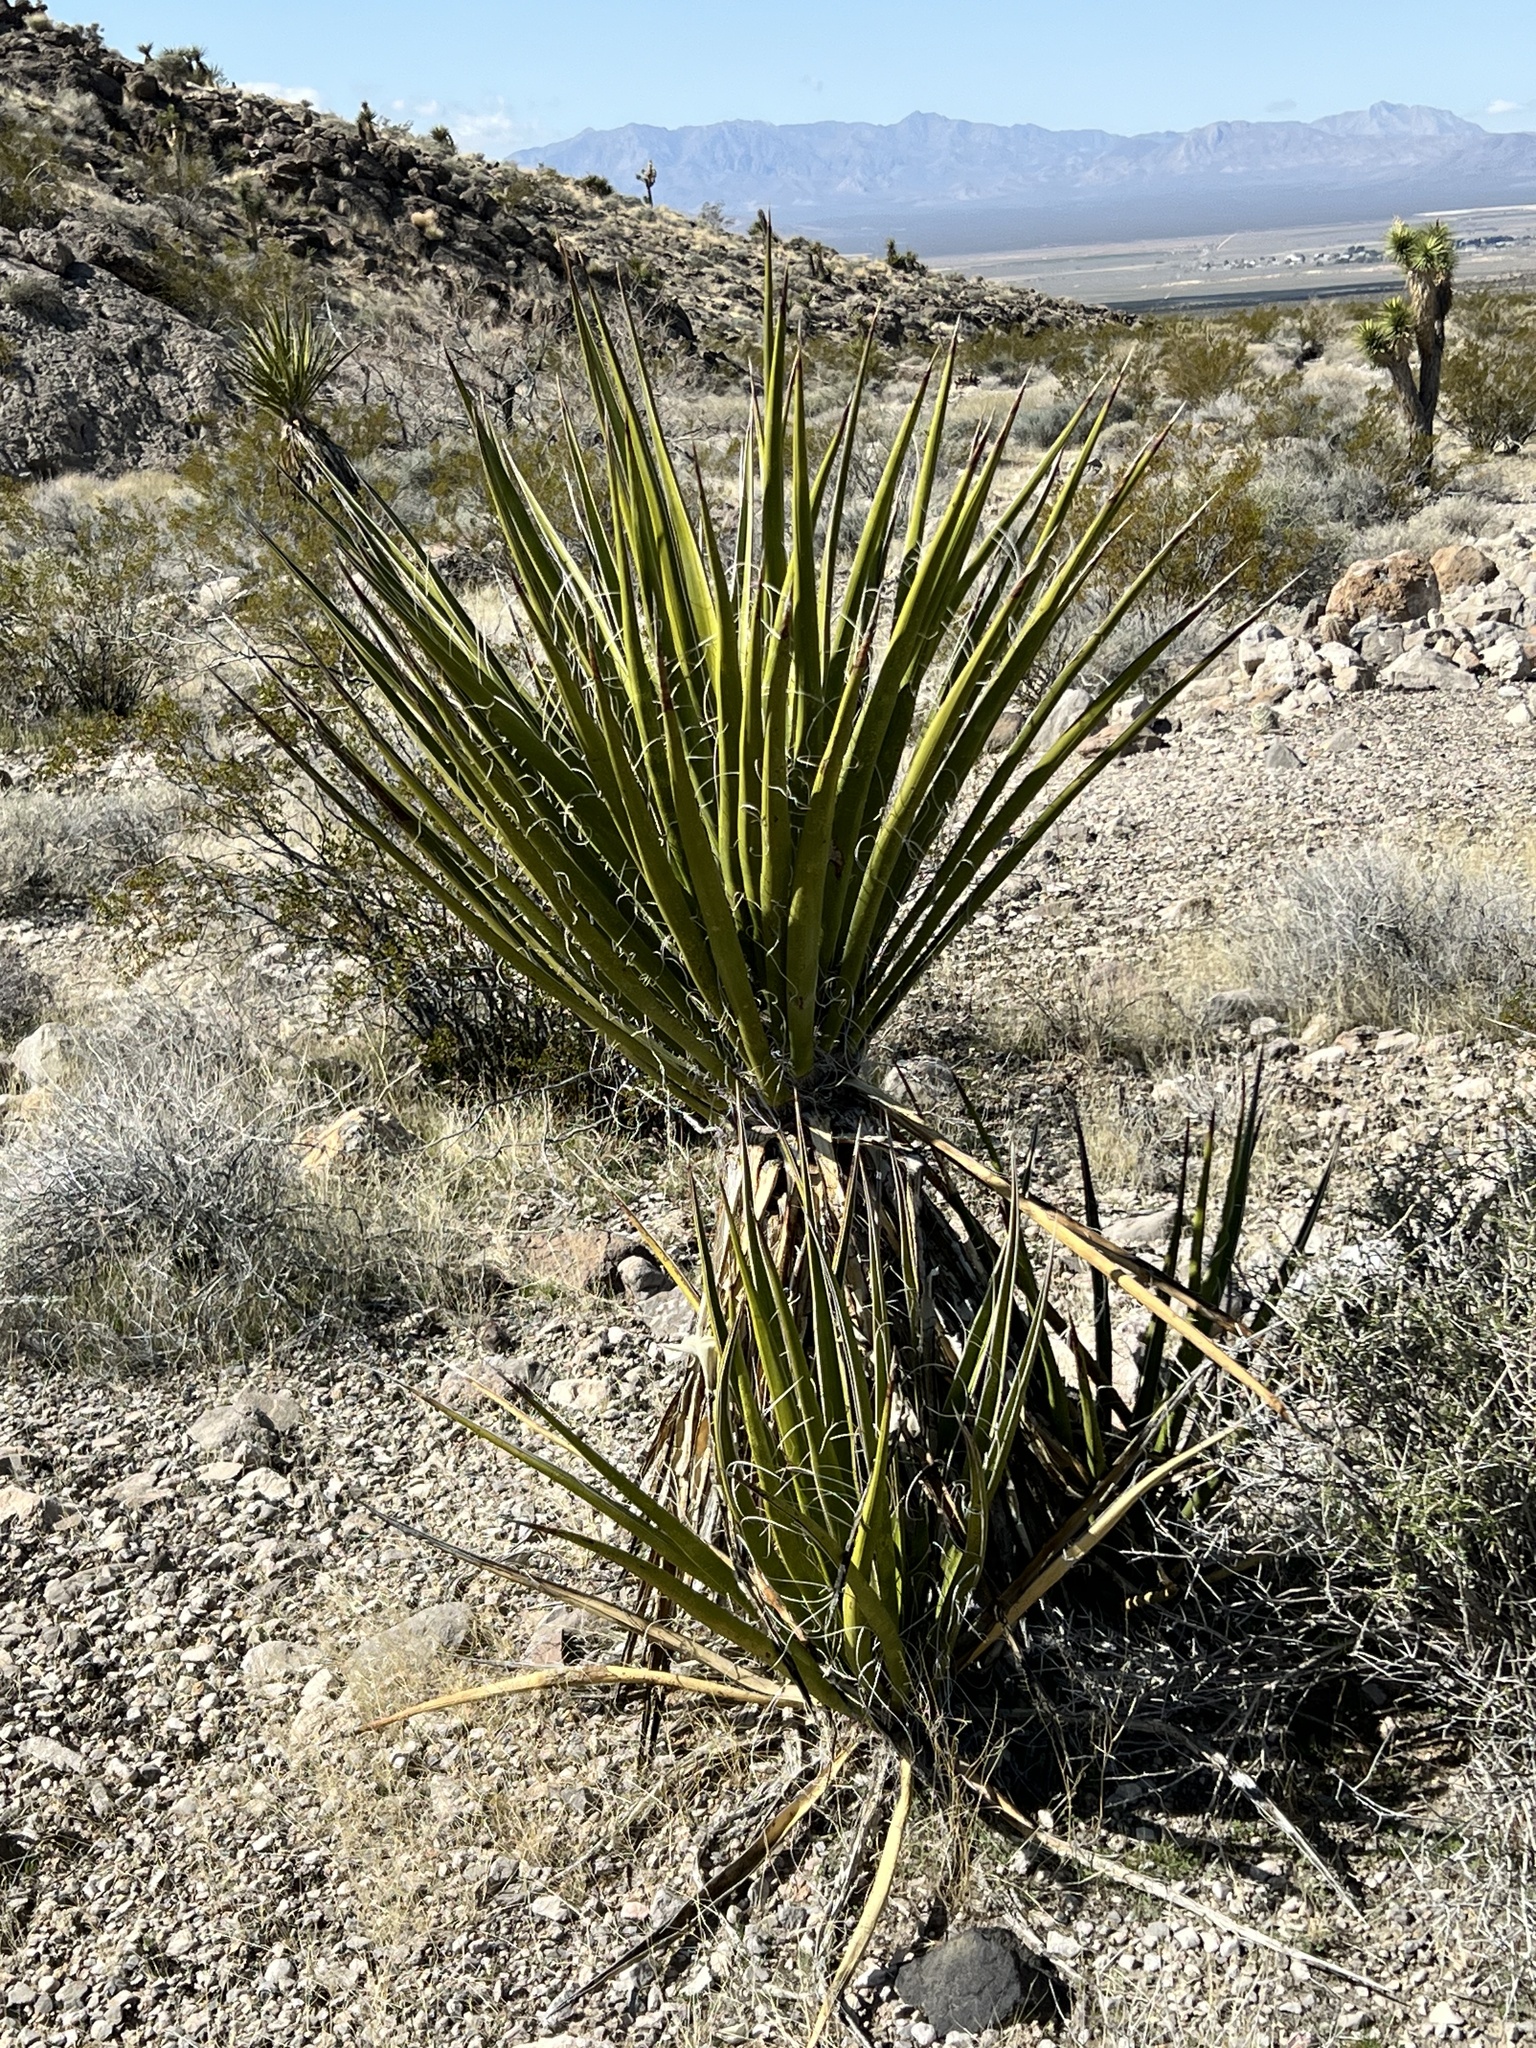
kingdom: Plantae
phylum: Tracheophyta
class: Liliopsida
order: Asparagales
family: Asparagaceae
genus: Yucca
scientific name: Yucca schidigera
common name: Mojave yucca
